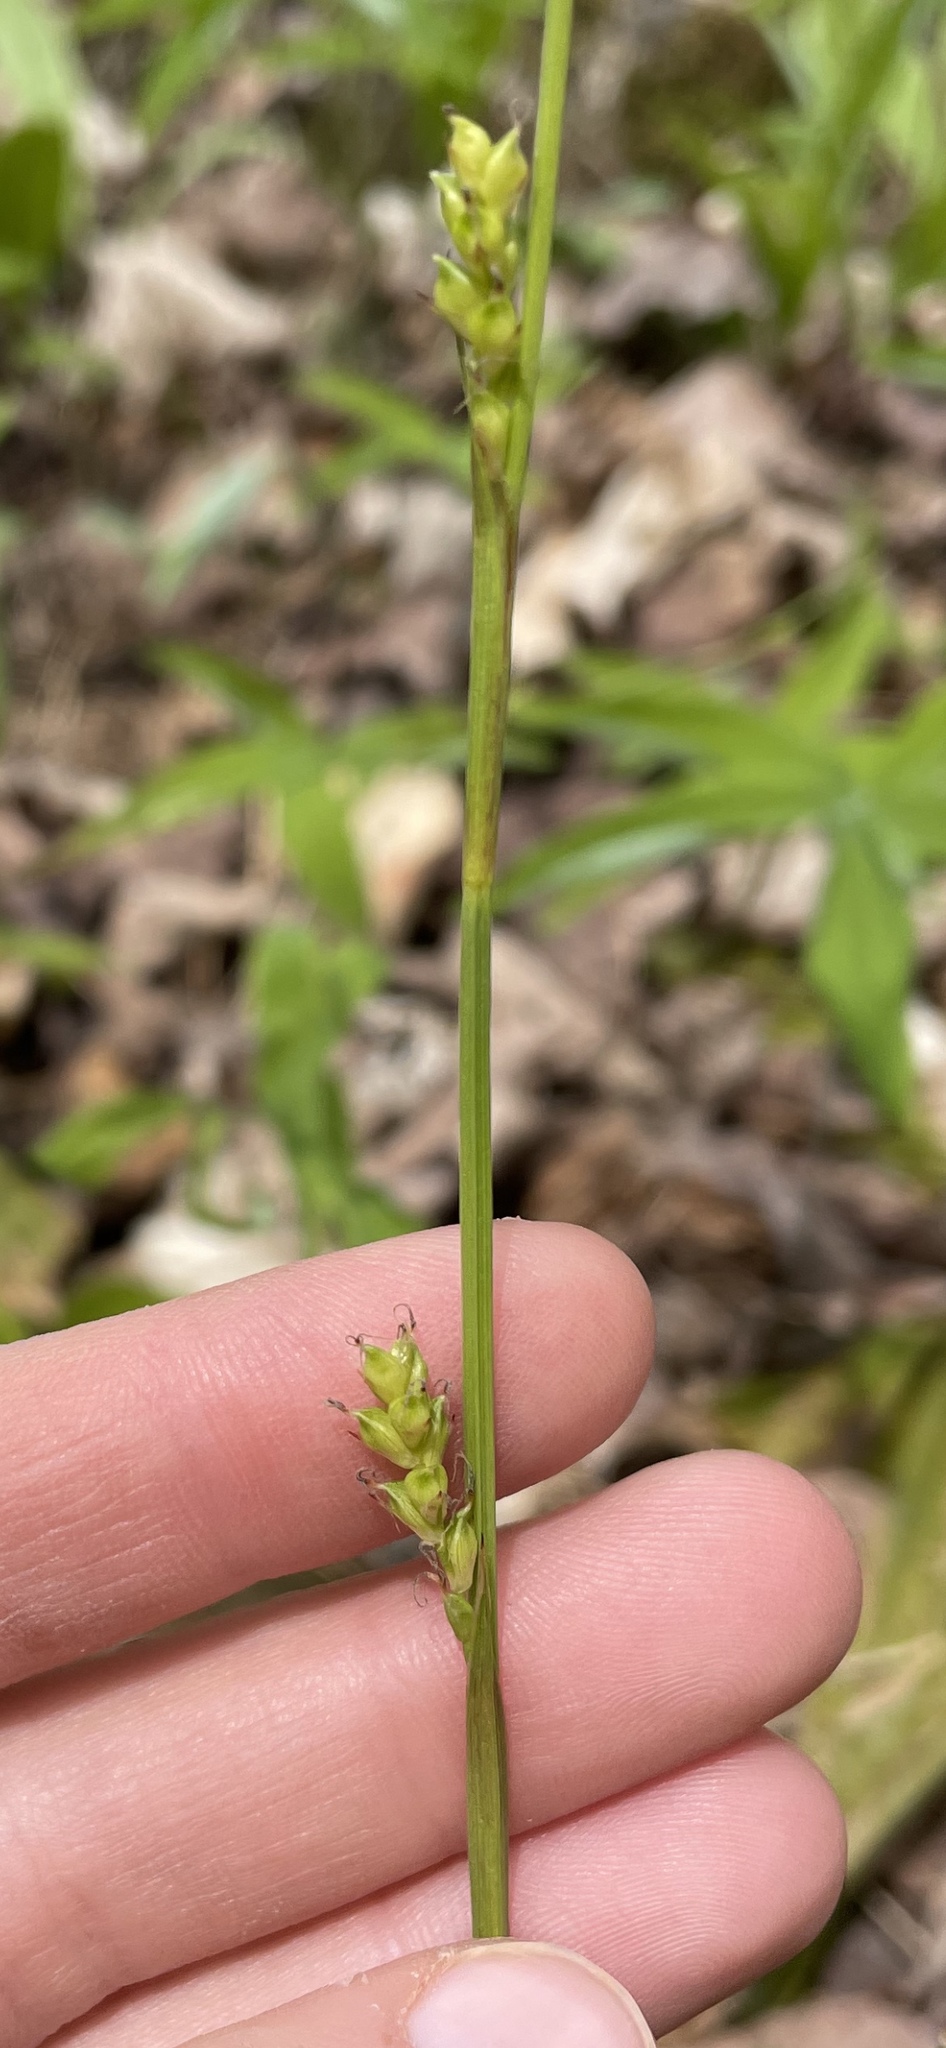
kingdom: Plantae
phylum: Tracheophyta
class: Liliopsida
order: Poales
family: Cyperaceae
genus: Carex
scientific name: Carex plantaginea
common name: Plantain-leaved sedge
